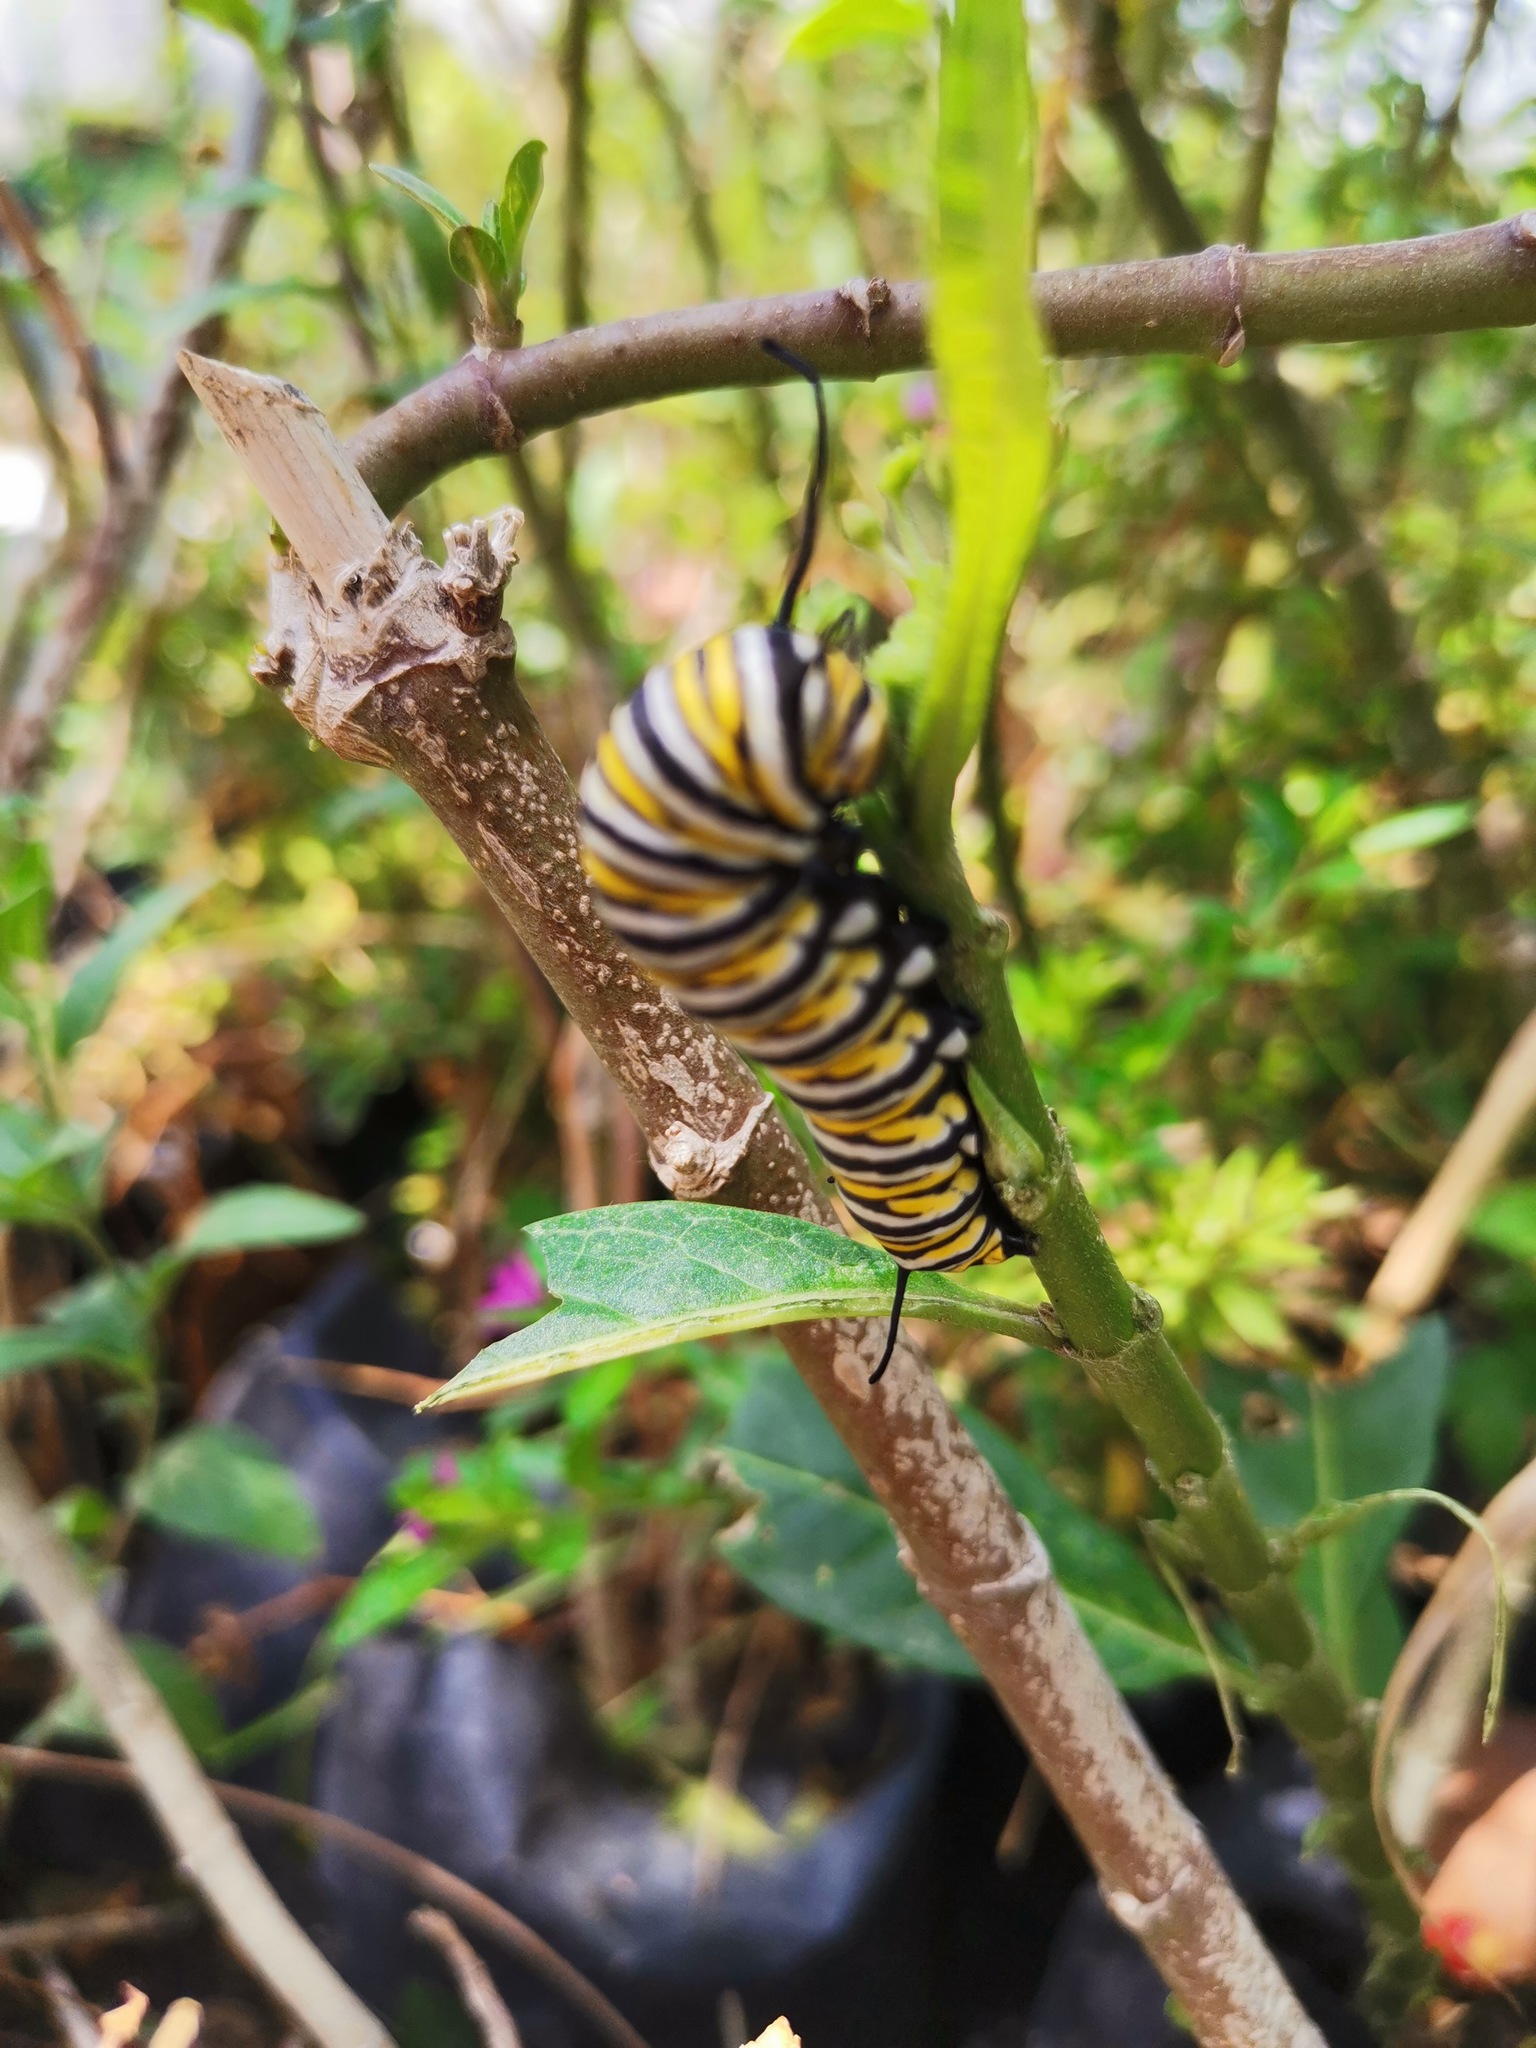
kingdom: Animalia
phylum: Arthropoda
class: Insecta
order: Lepidoptera
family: Nymphalidae
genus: Danaus
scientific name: Danaus plexippus
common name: Monarch
